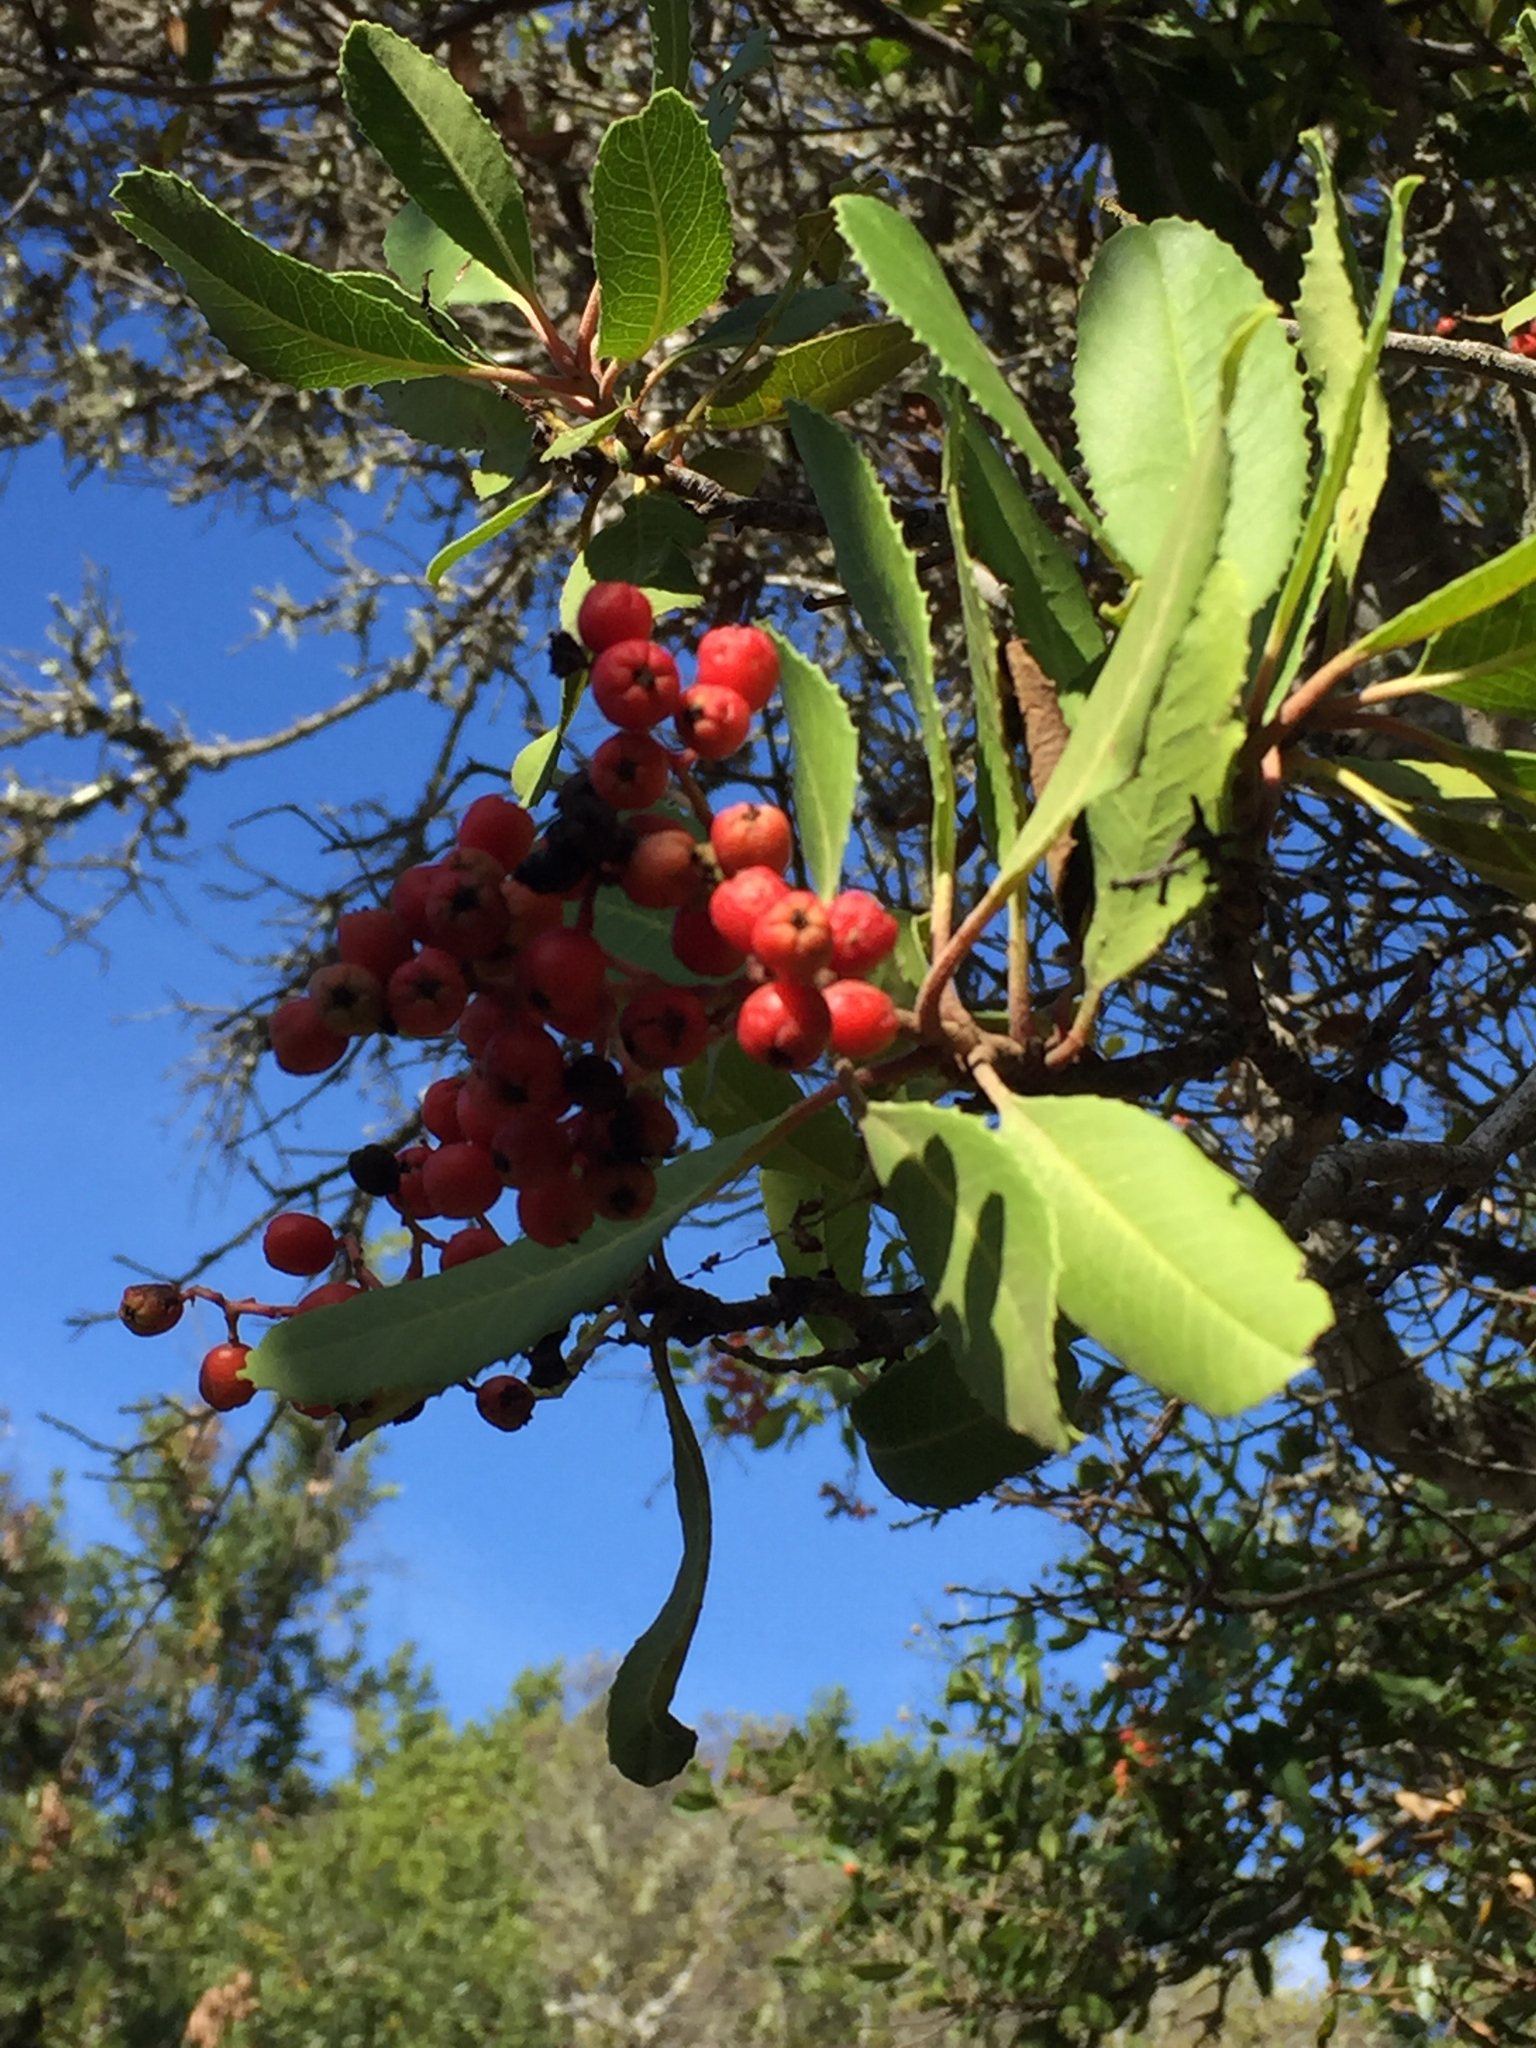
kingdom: Plantae
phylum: Tracheophyta
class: Magnoliopsida
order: Rosales
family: Rosaceae
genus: Heteromeles
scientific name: Heteromeles arbutifolia
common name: California-holly
